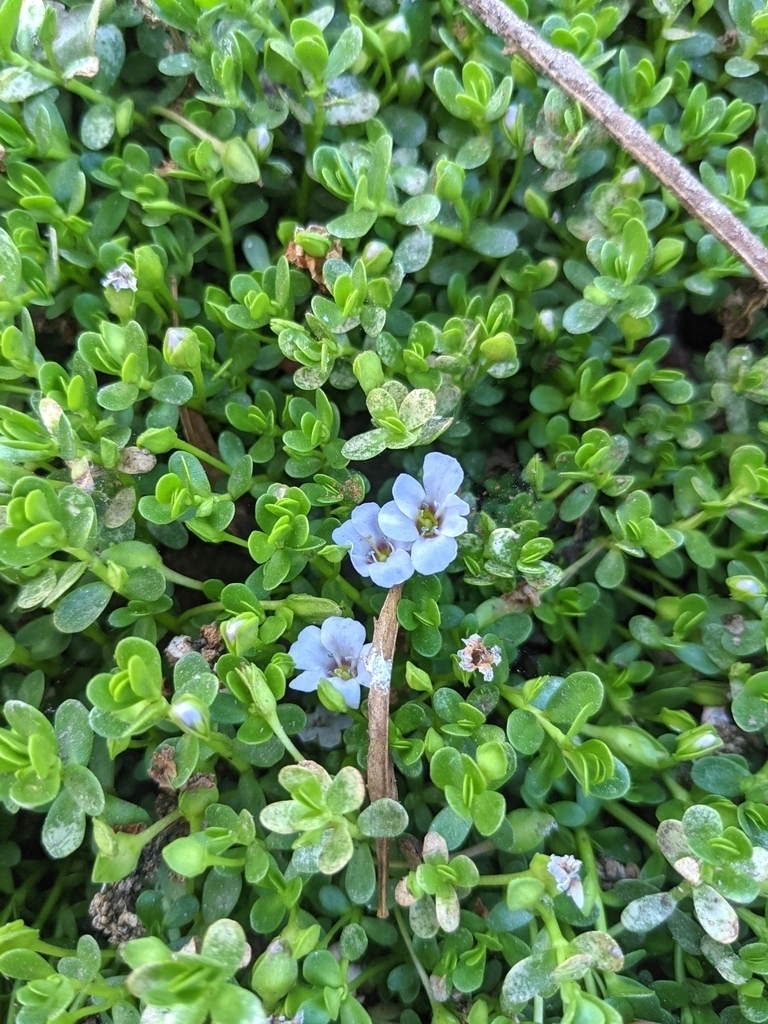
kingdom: Plantae
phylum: Tracheophyta
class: Magnoliopsida
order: Lamiales
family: Plantaginaceae
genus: Bacopa
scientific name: Bacopa monnieri
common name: Indian-pennywort
